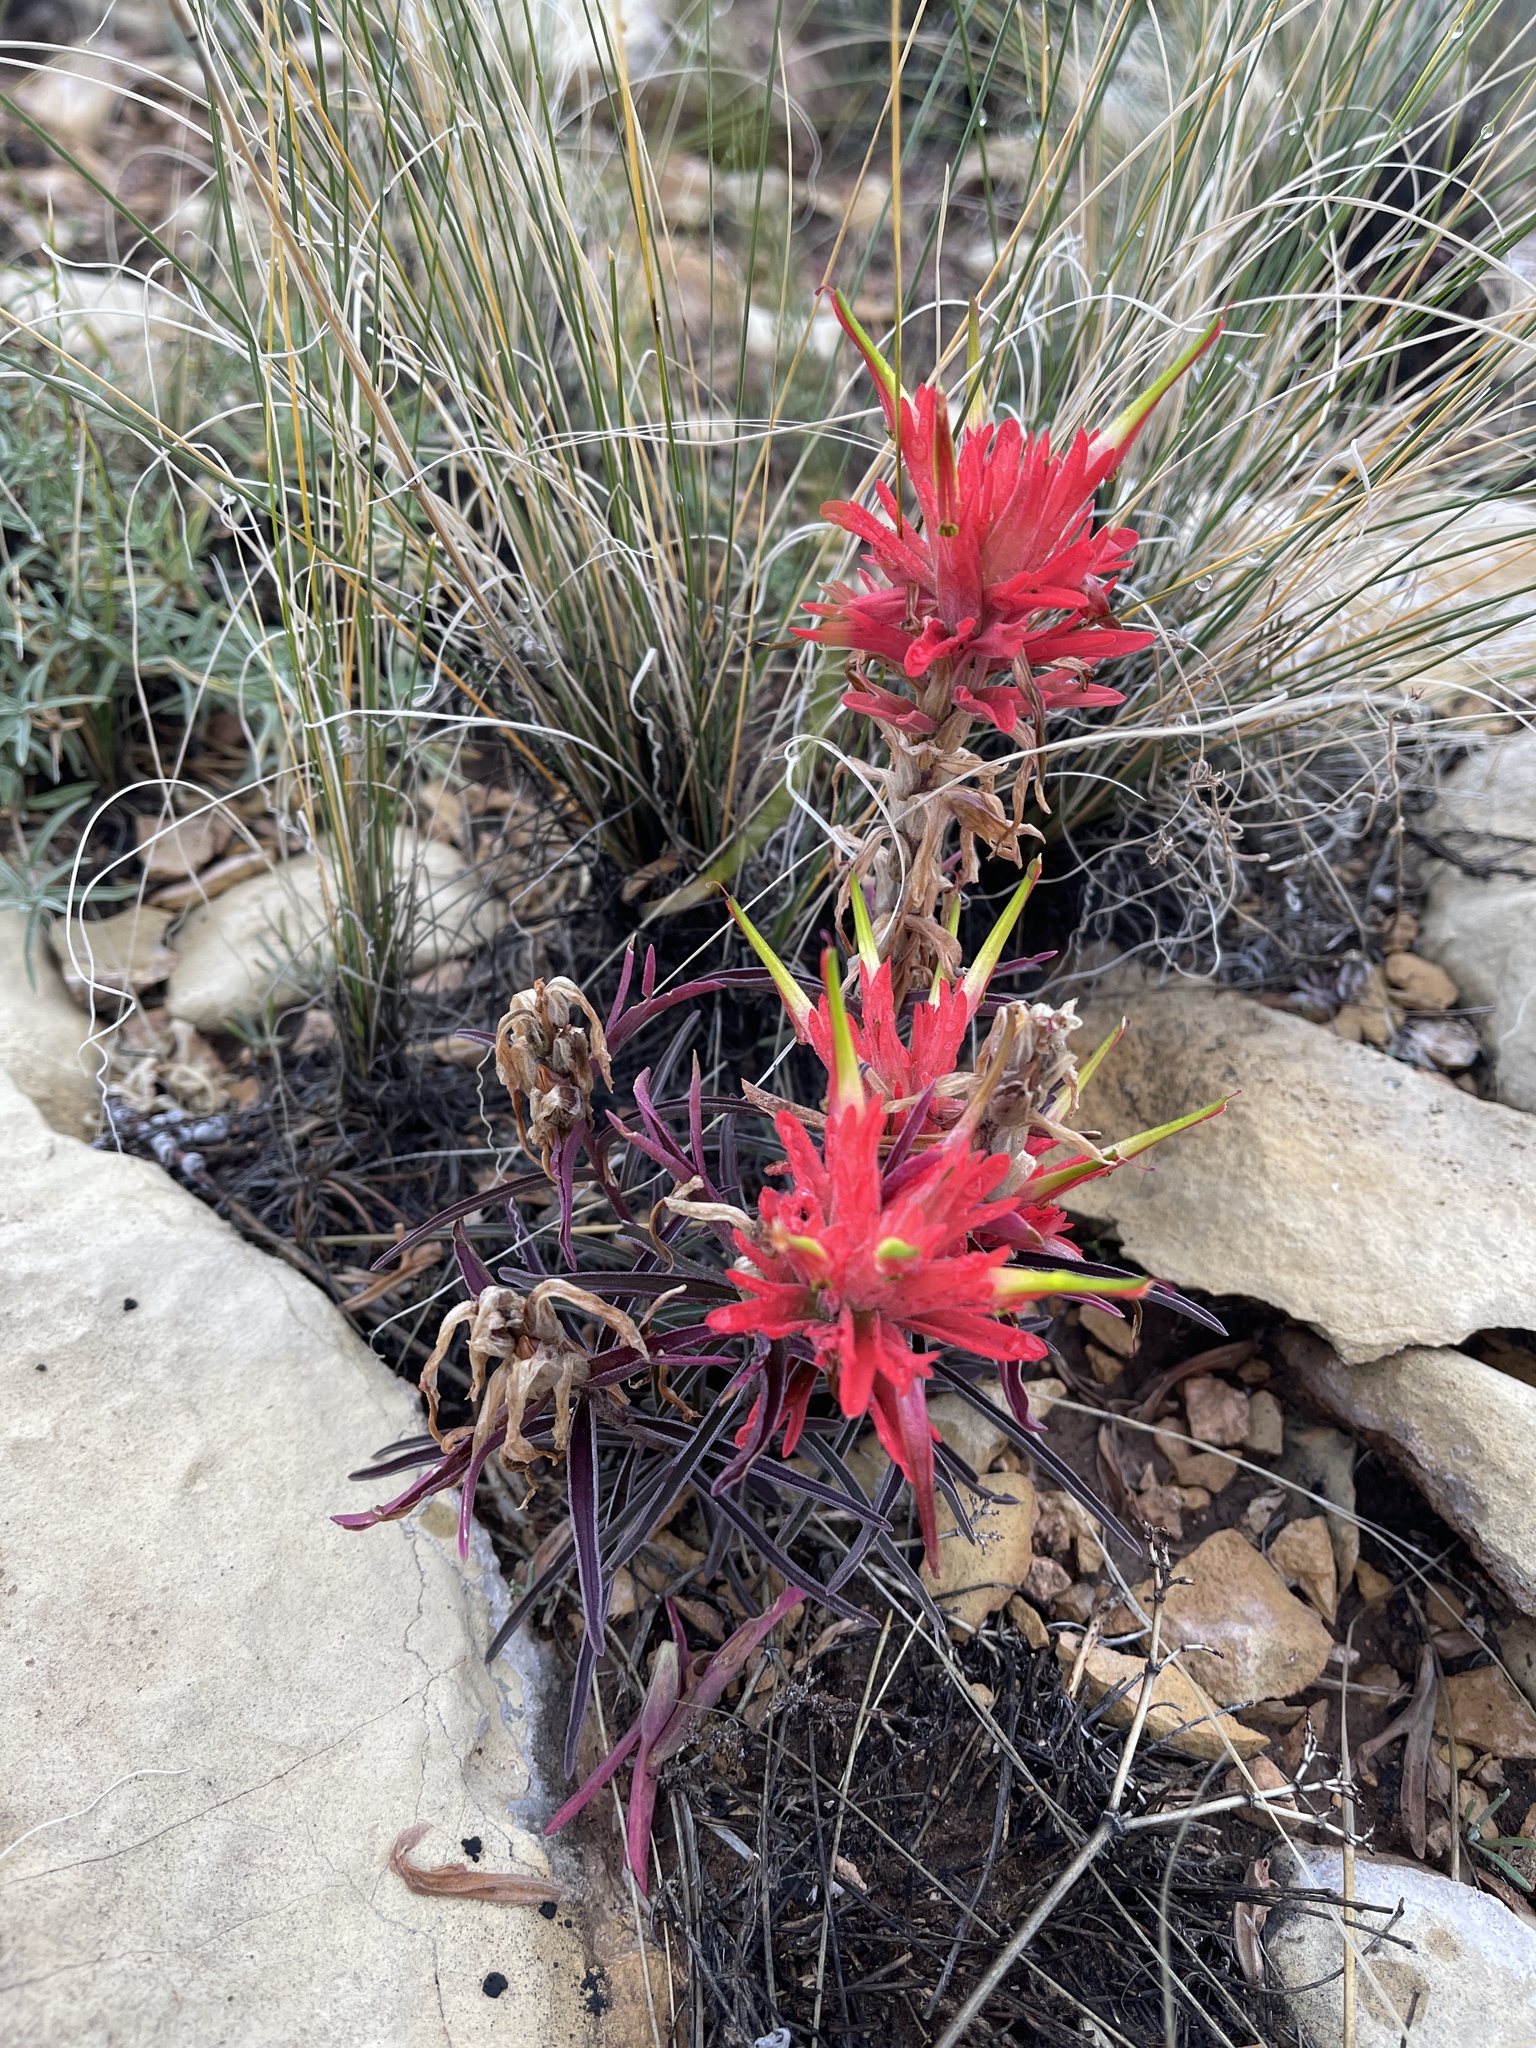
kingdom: Plantae
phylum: Tracheophyta
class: Magnoliopsida
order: Lamiales
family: Orobanchaceae
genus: Castilleja
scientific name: Castilleja integra
